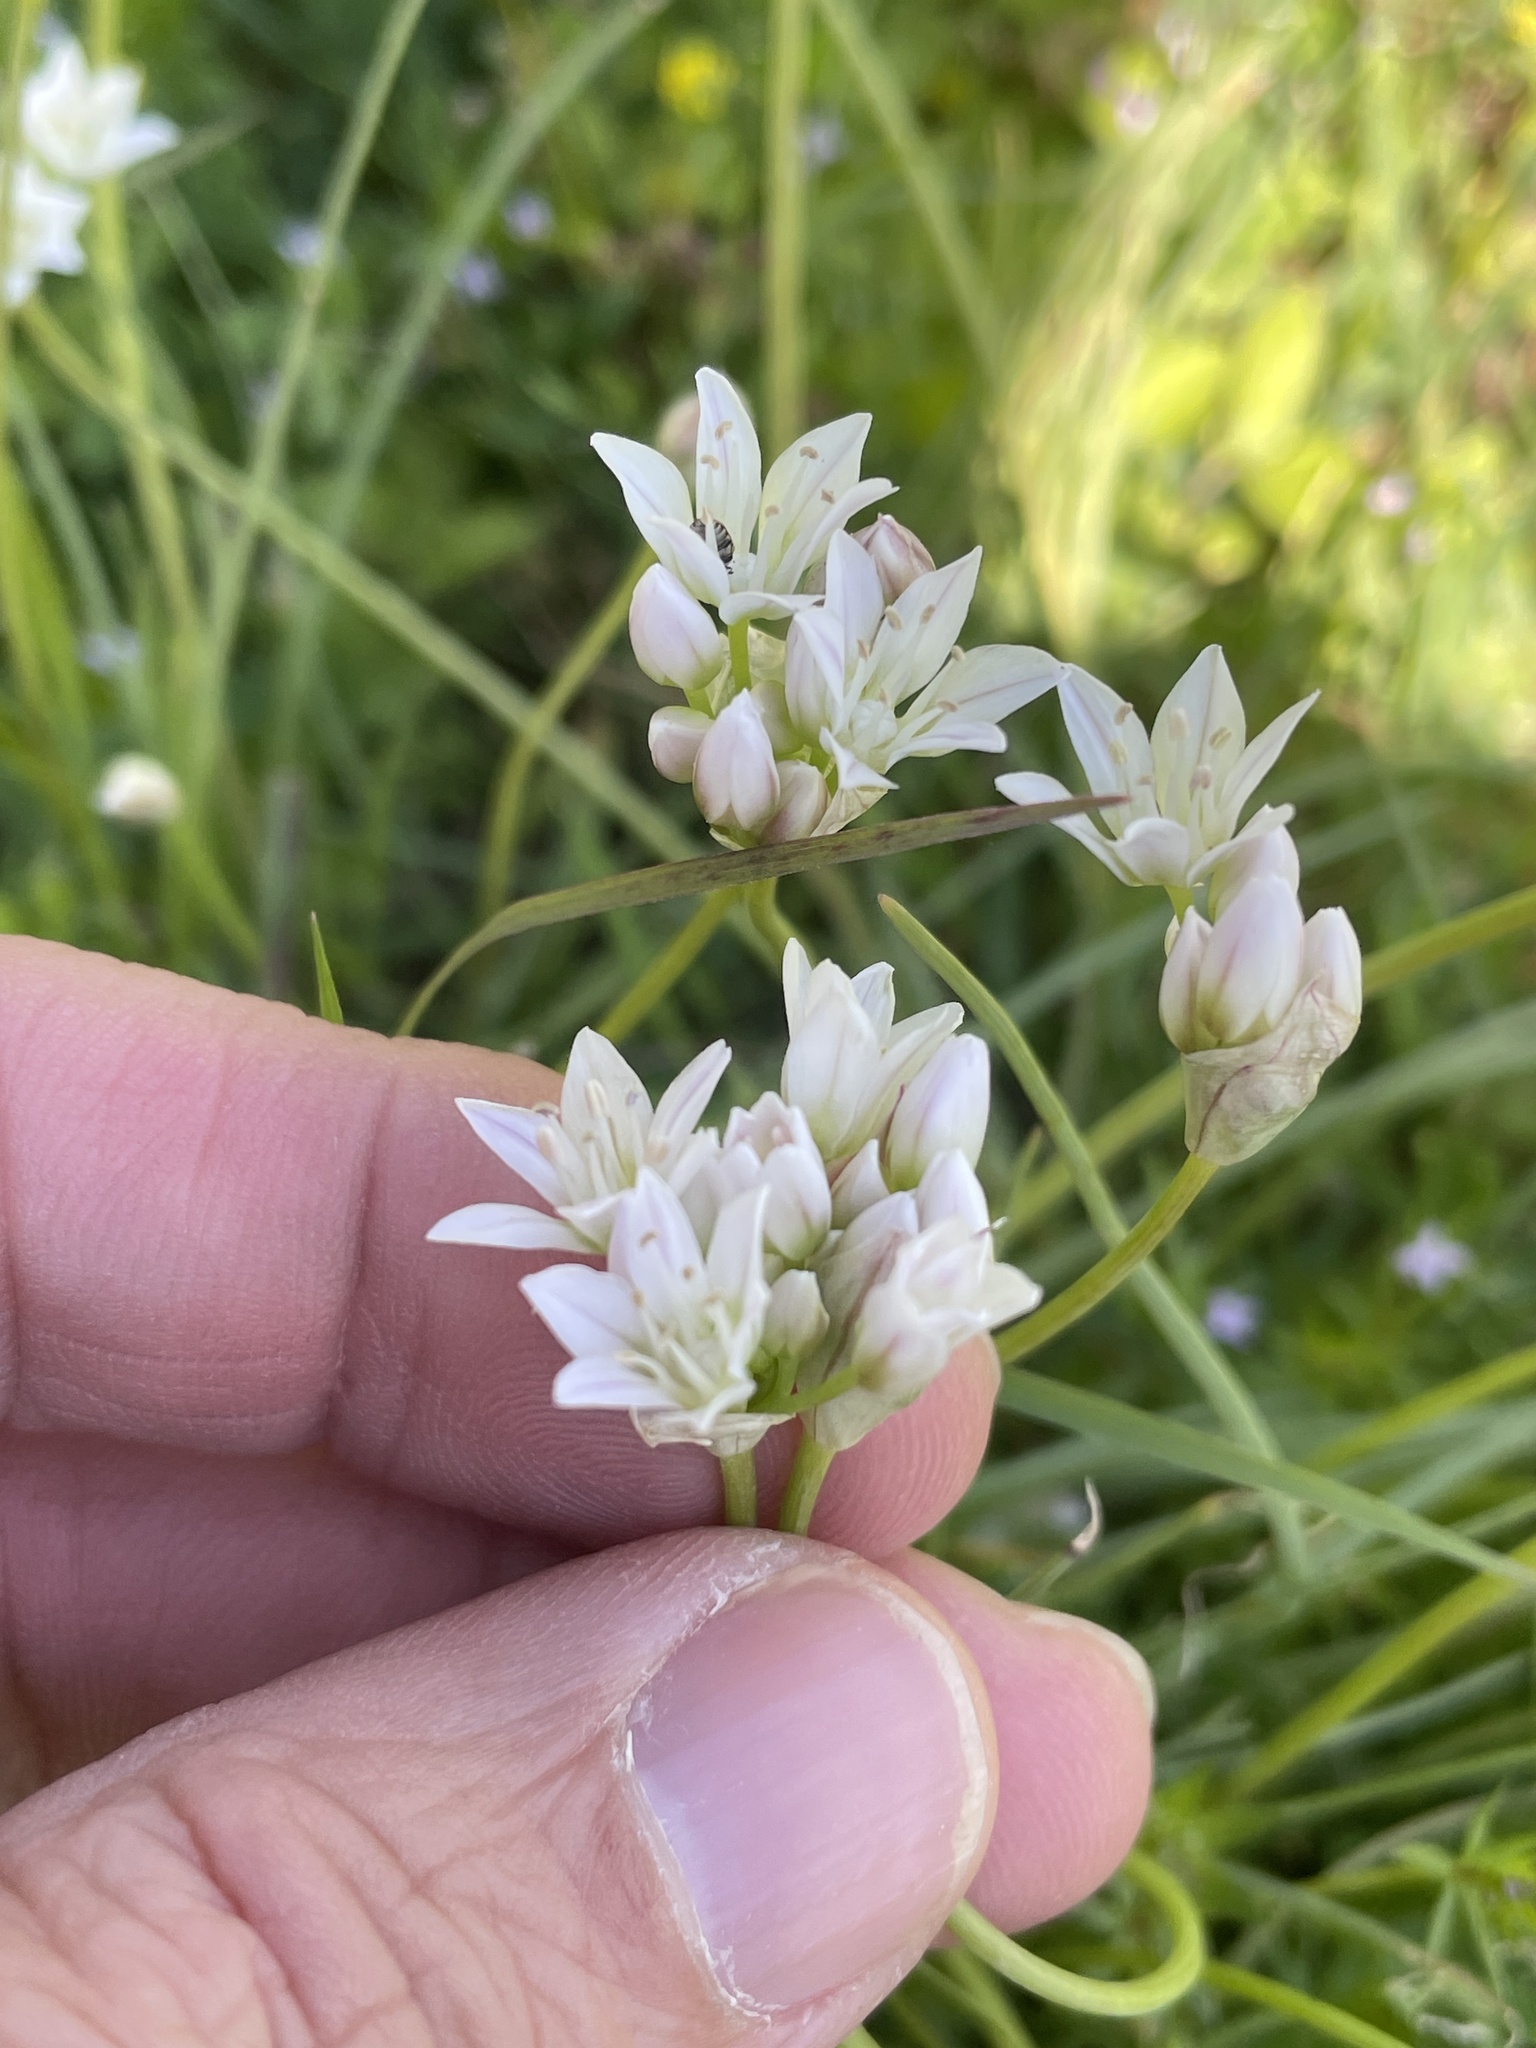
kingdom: Plantae
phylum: Tracheophyta
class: Liliopsida
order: Asparagales
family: Amaryllidaceae
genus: Allium
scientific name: Allium drummondii
